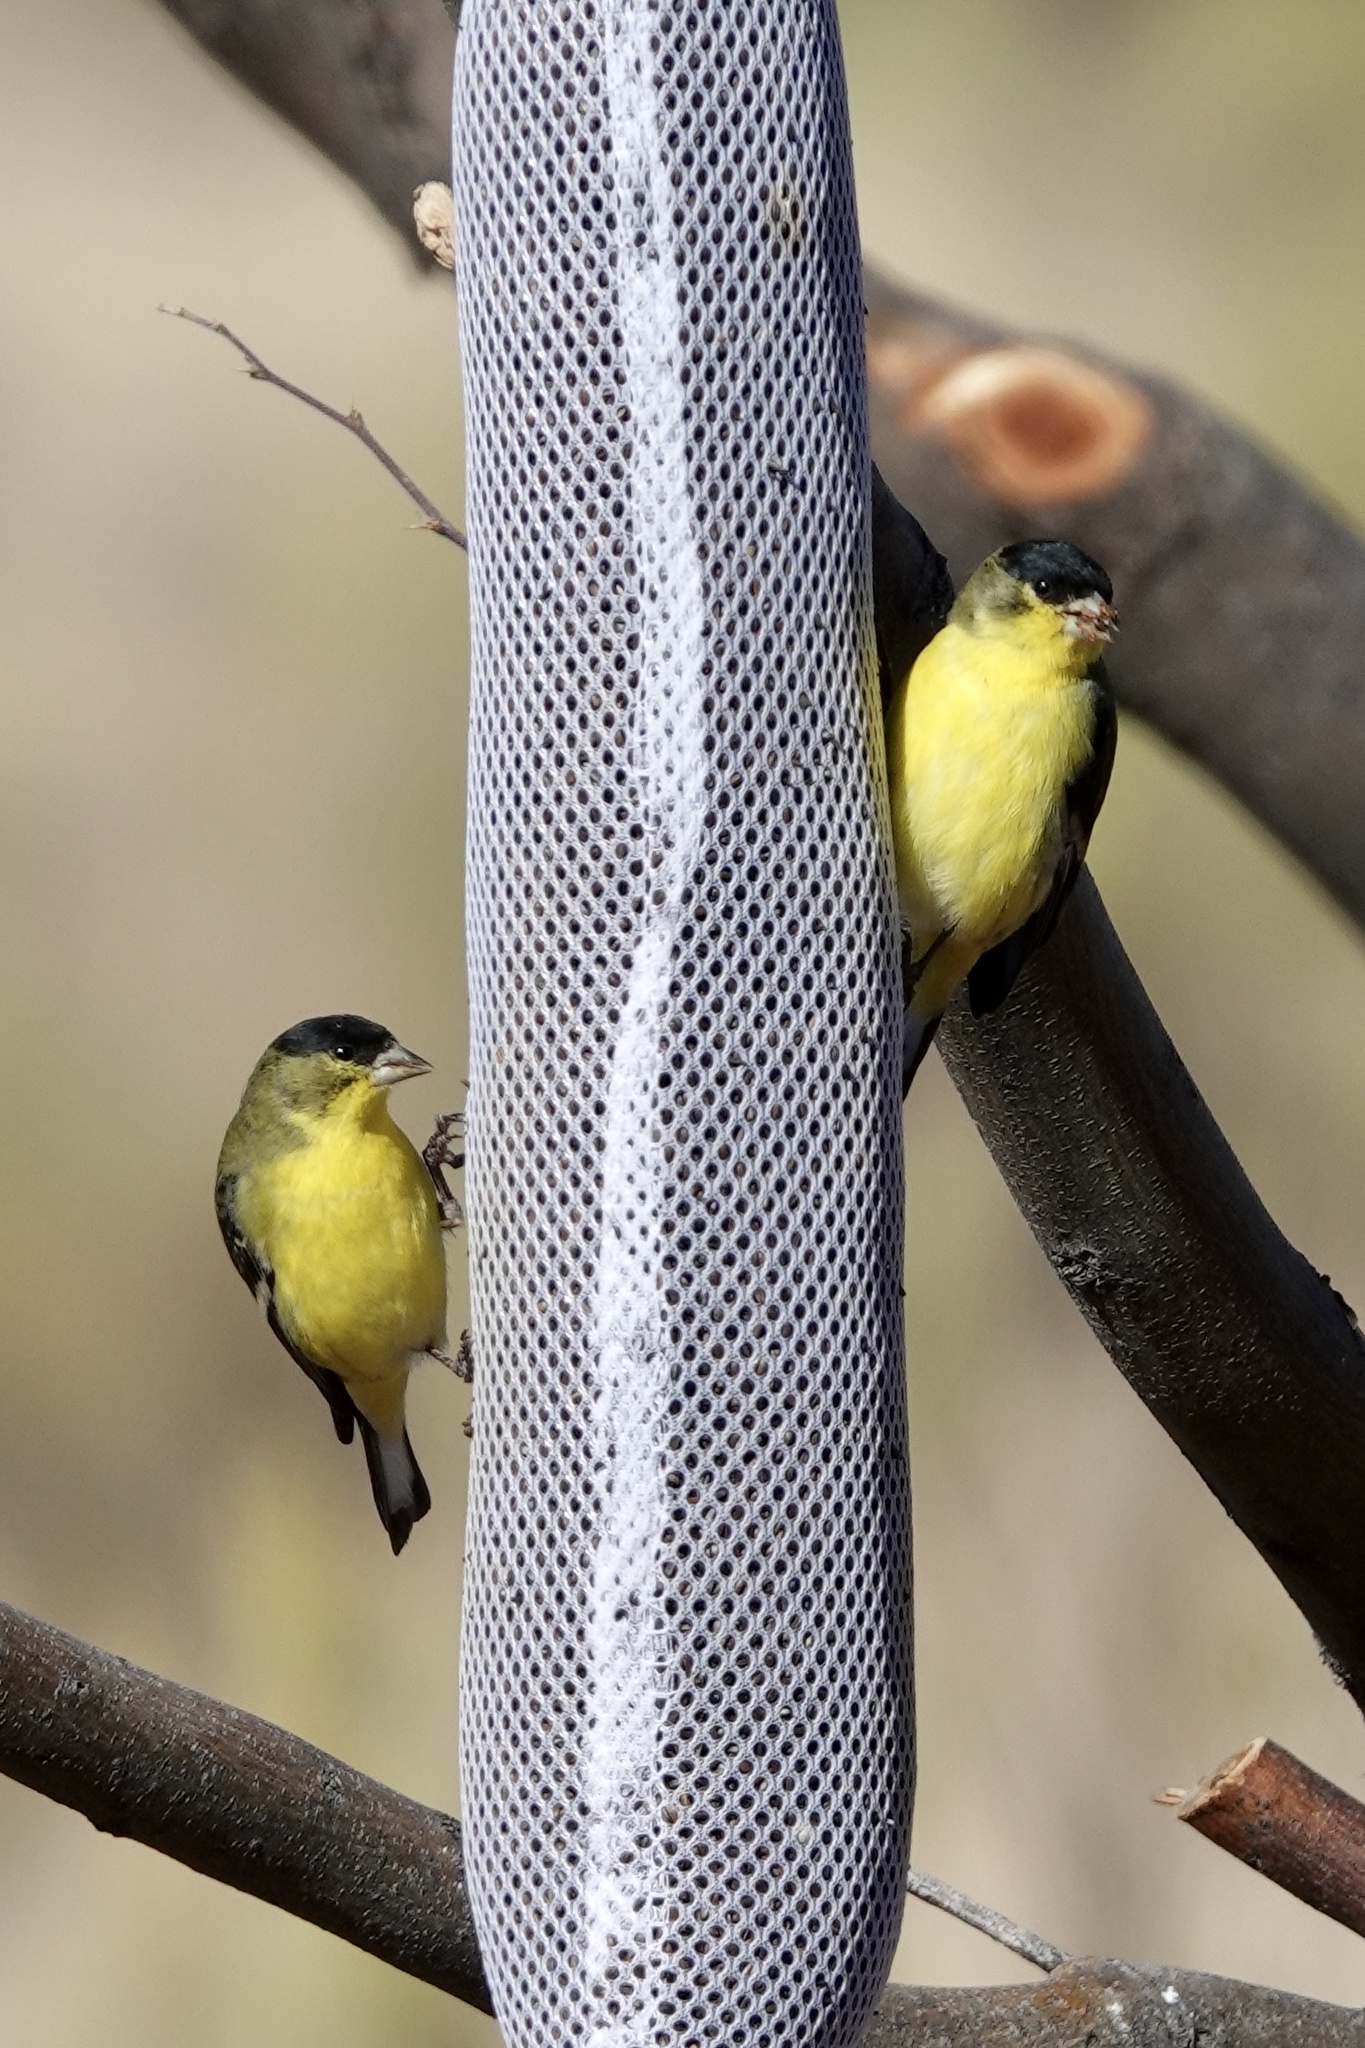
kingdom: Animalia
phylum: Chordata
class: Aves
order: Passeriformes
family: Fringillidae
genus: Spinus
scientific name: Spinus psaltria
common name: Lesser goldfinch
